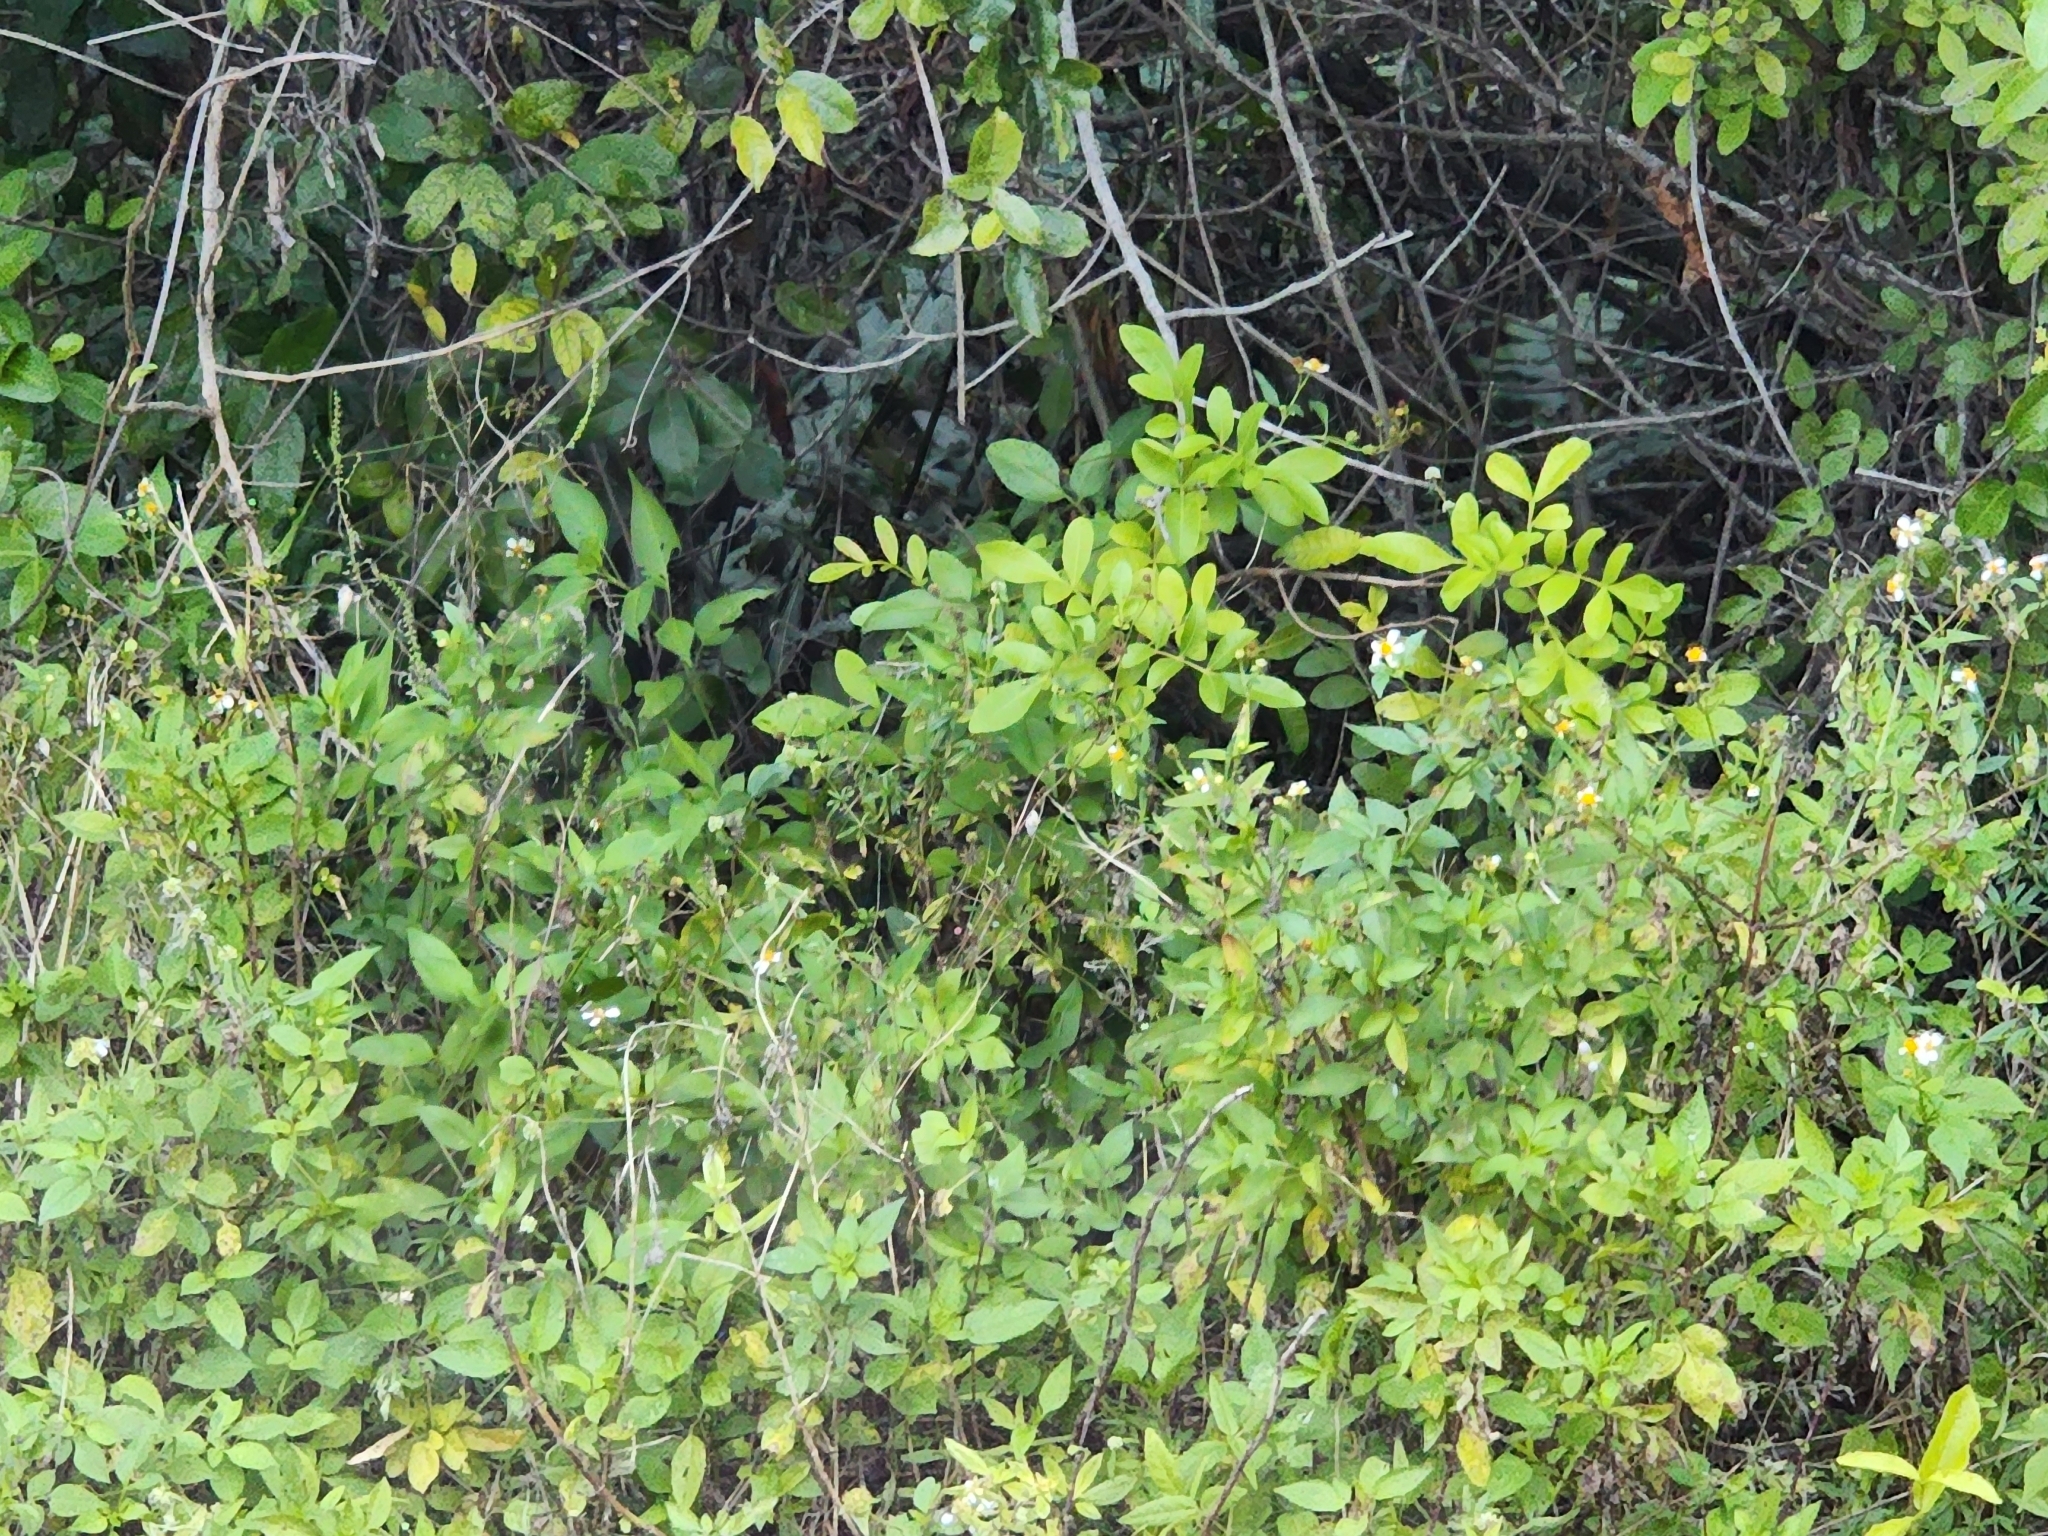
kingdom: Plantae
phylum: Tracheophyta
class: Magnoliopsida
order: Asterales
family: Asteraceae
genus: Bidens
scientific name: Bidens alba
